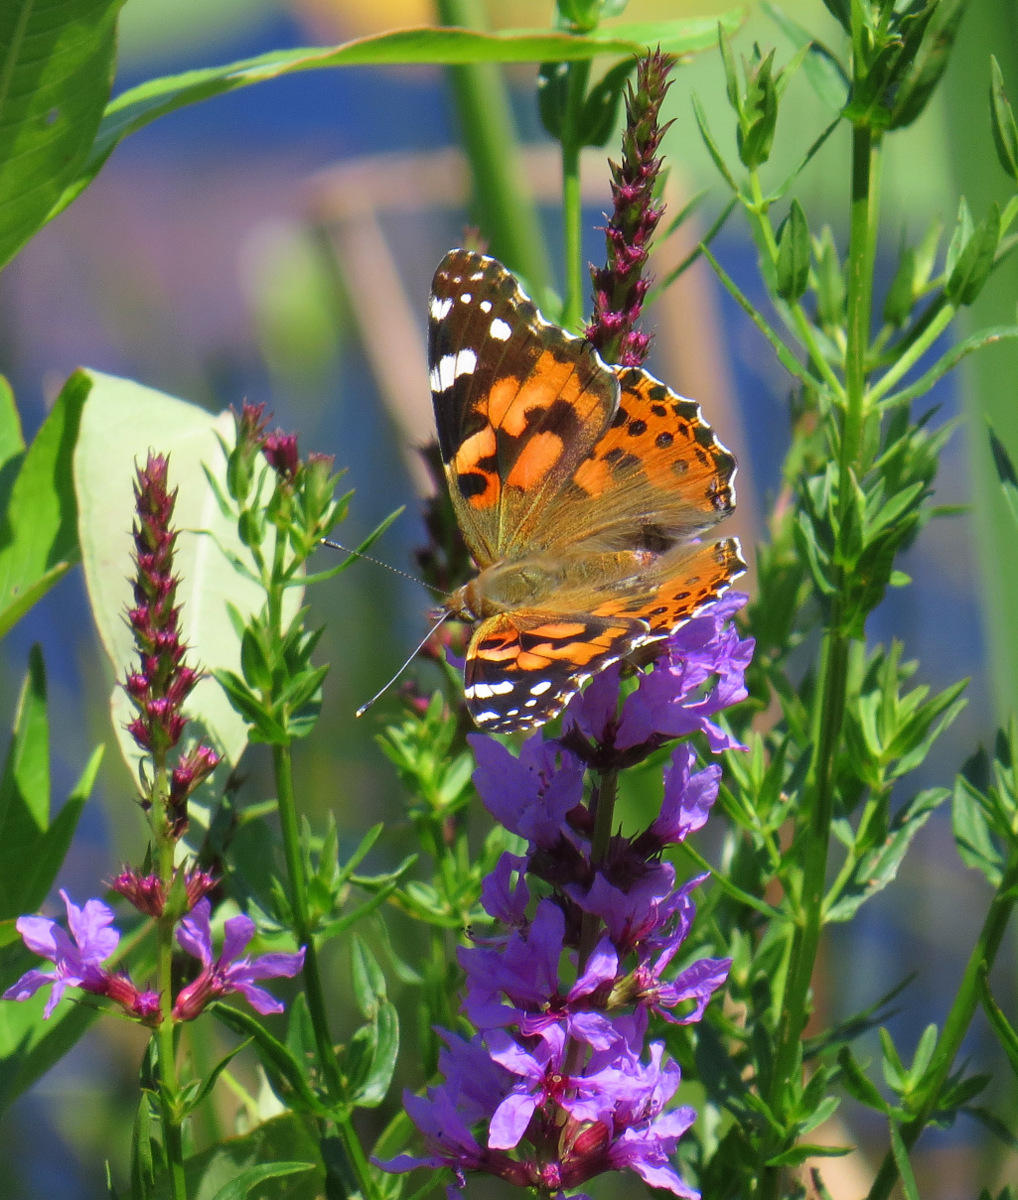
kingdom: Animalia
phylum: Arthropoda
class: Insecta
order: Lepidoptera
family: Nymphalidae
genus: Vanessa
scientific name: Vanessa cardui
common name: Painted lady
